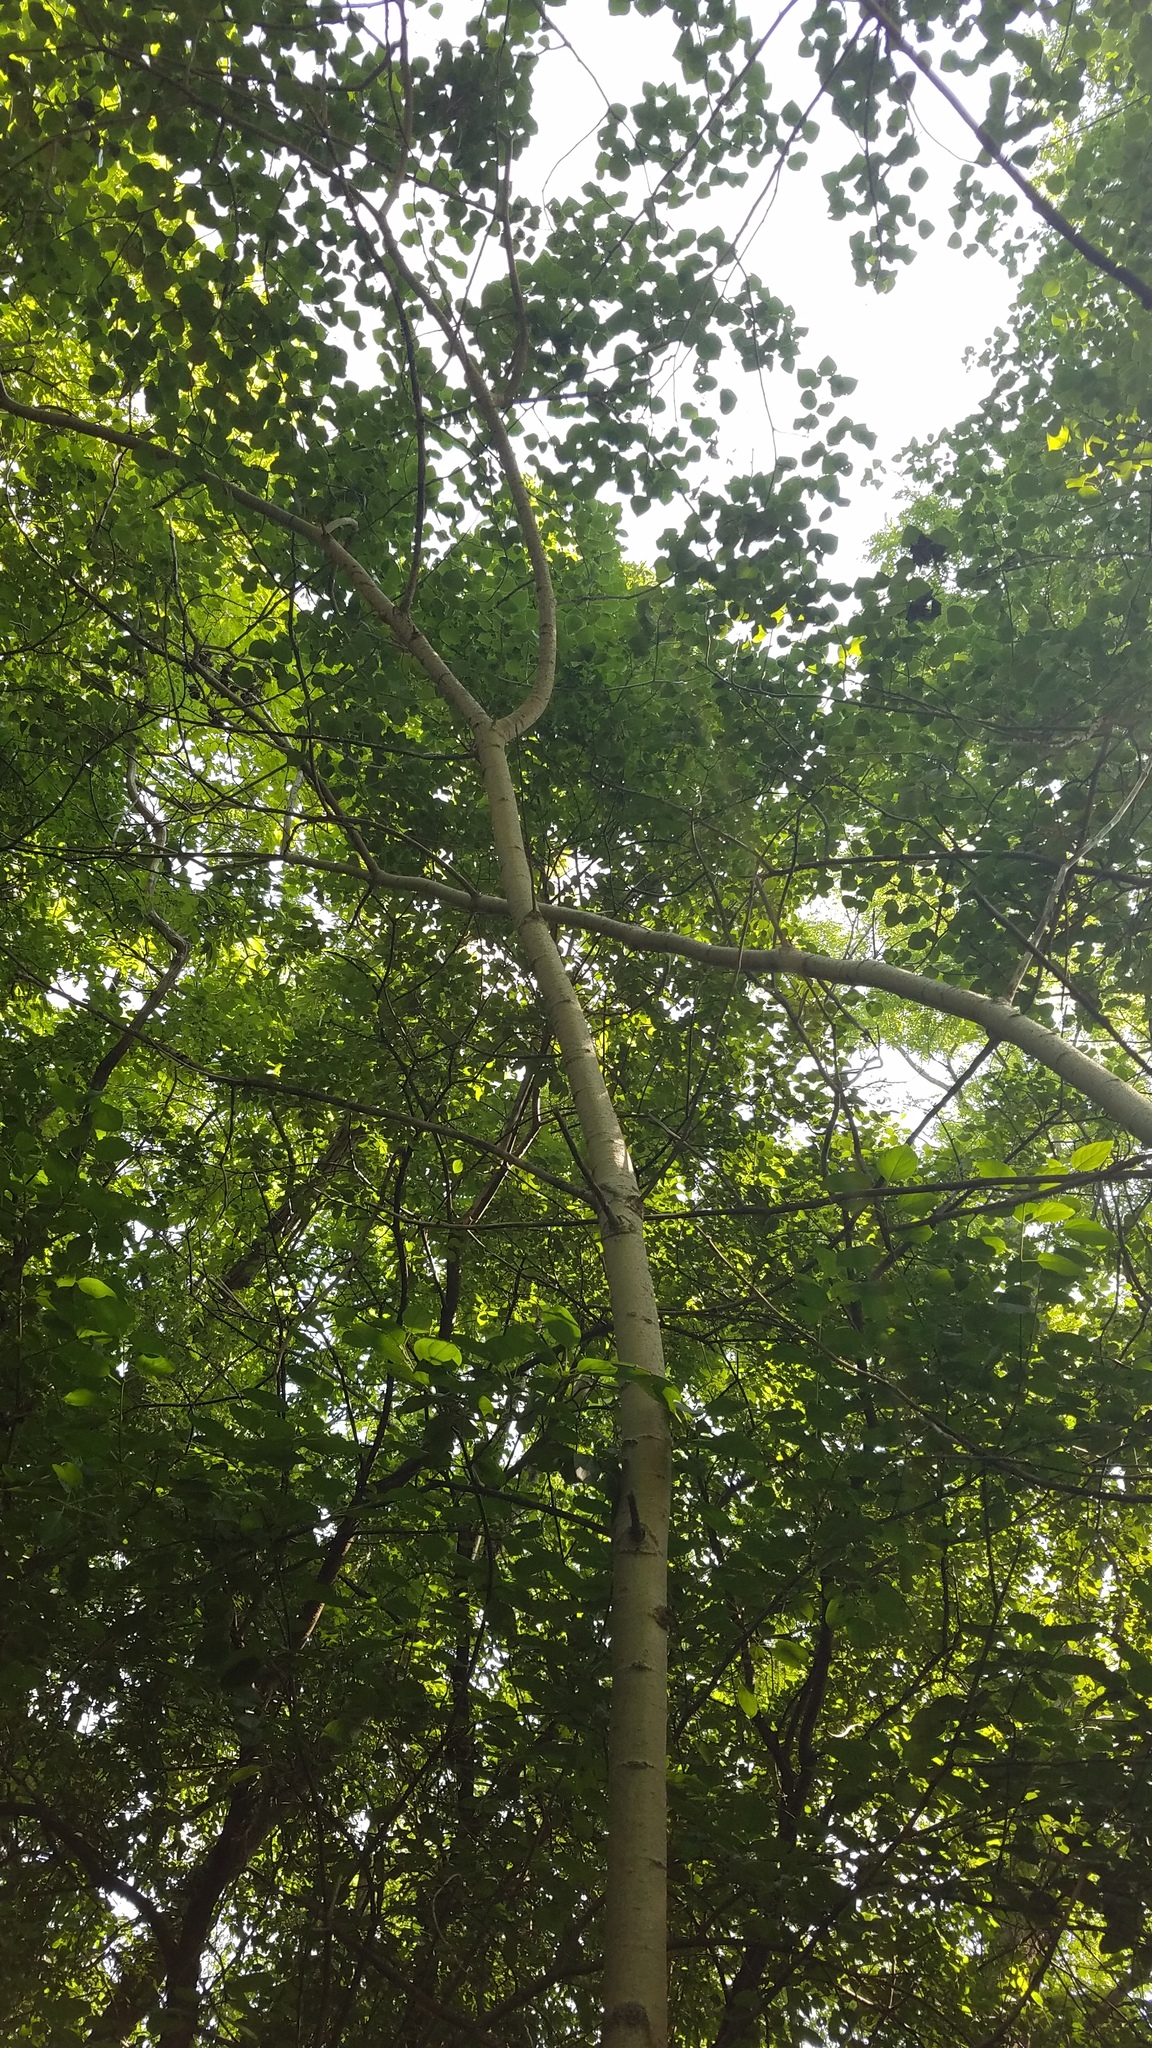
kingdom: Plantae
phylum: Tracheophyta
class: Magnoliopsida
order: Malpighiales
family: Salicaceae
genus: Populus
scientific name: Populus tremuloides
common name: Quaking aspen
